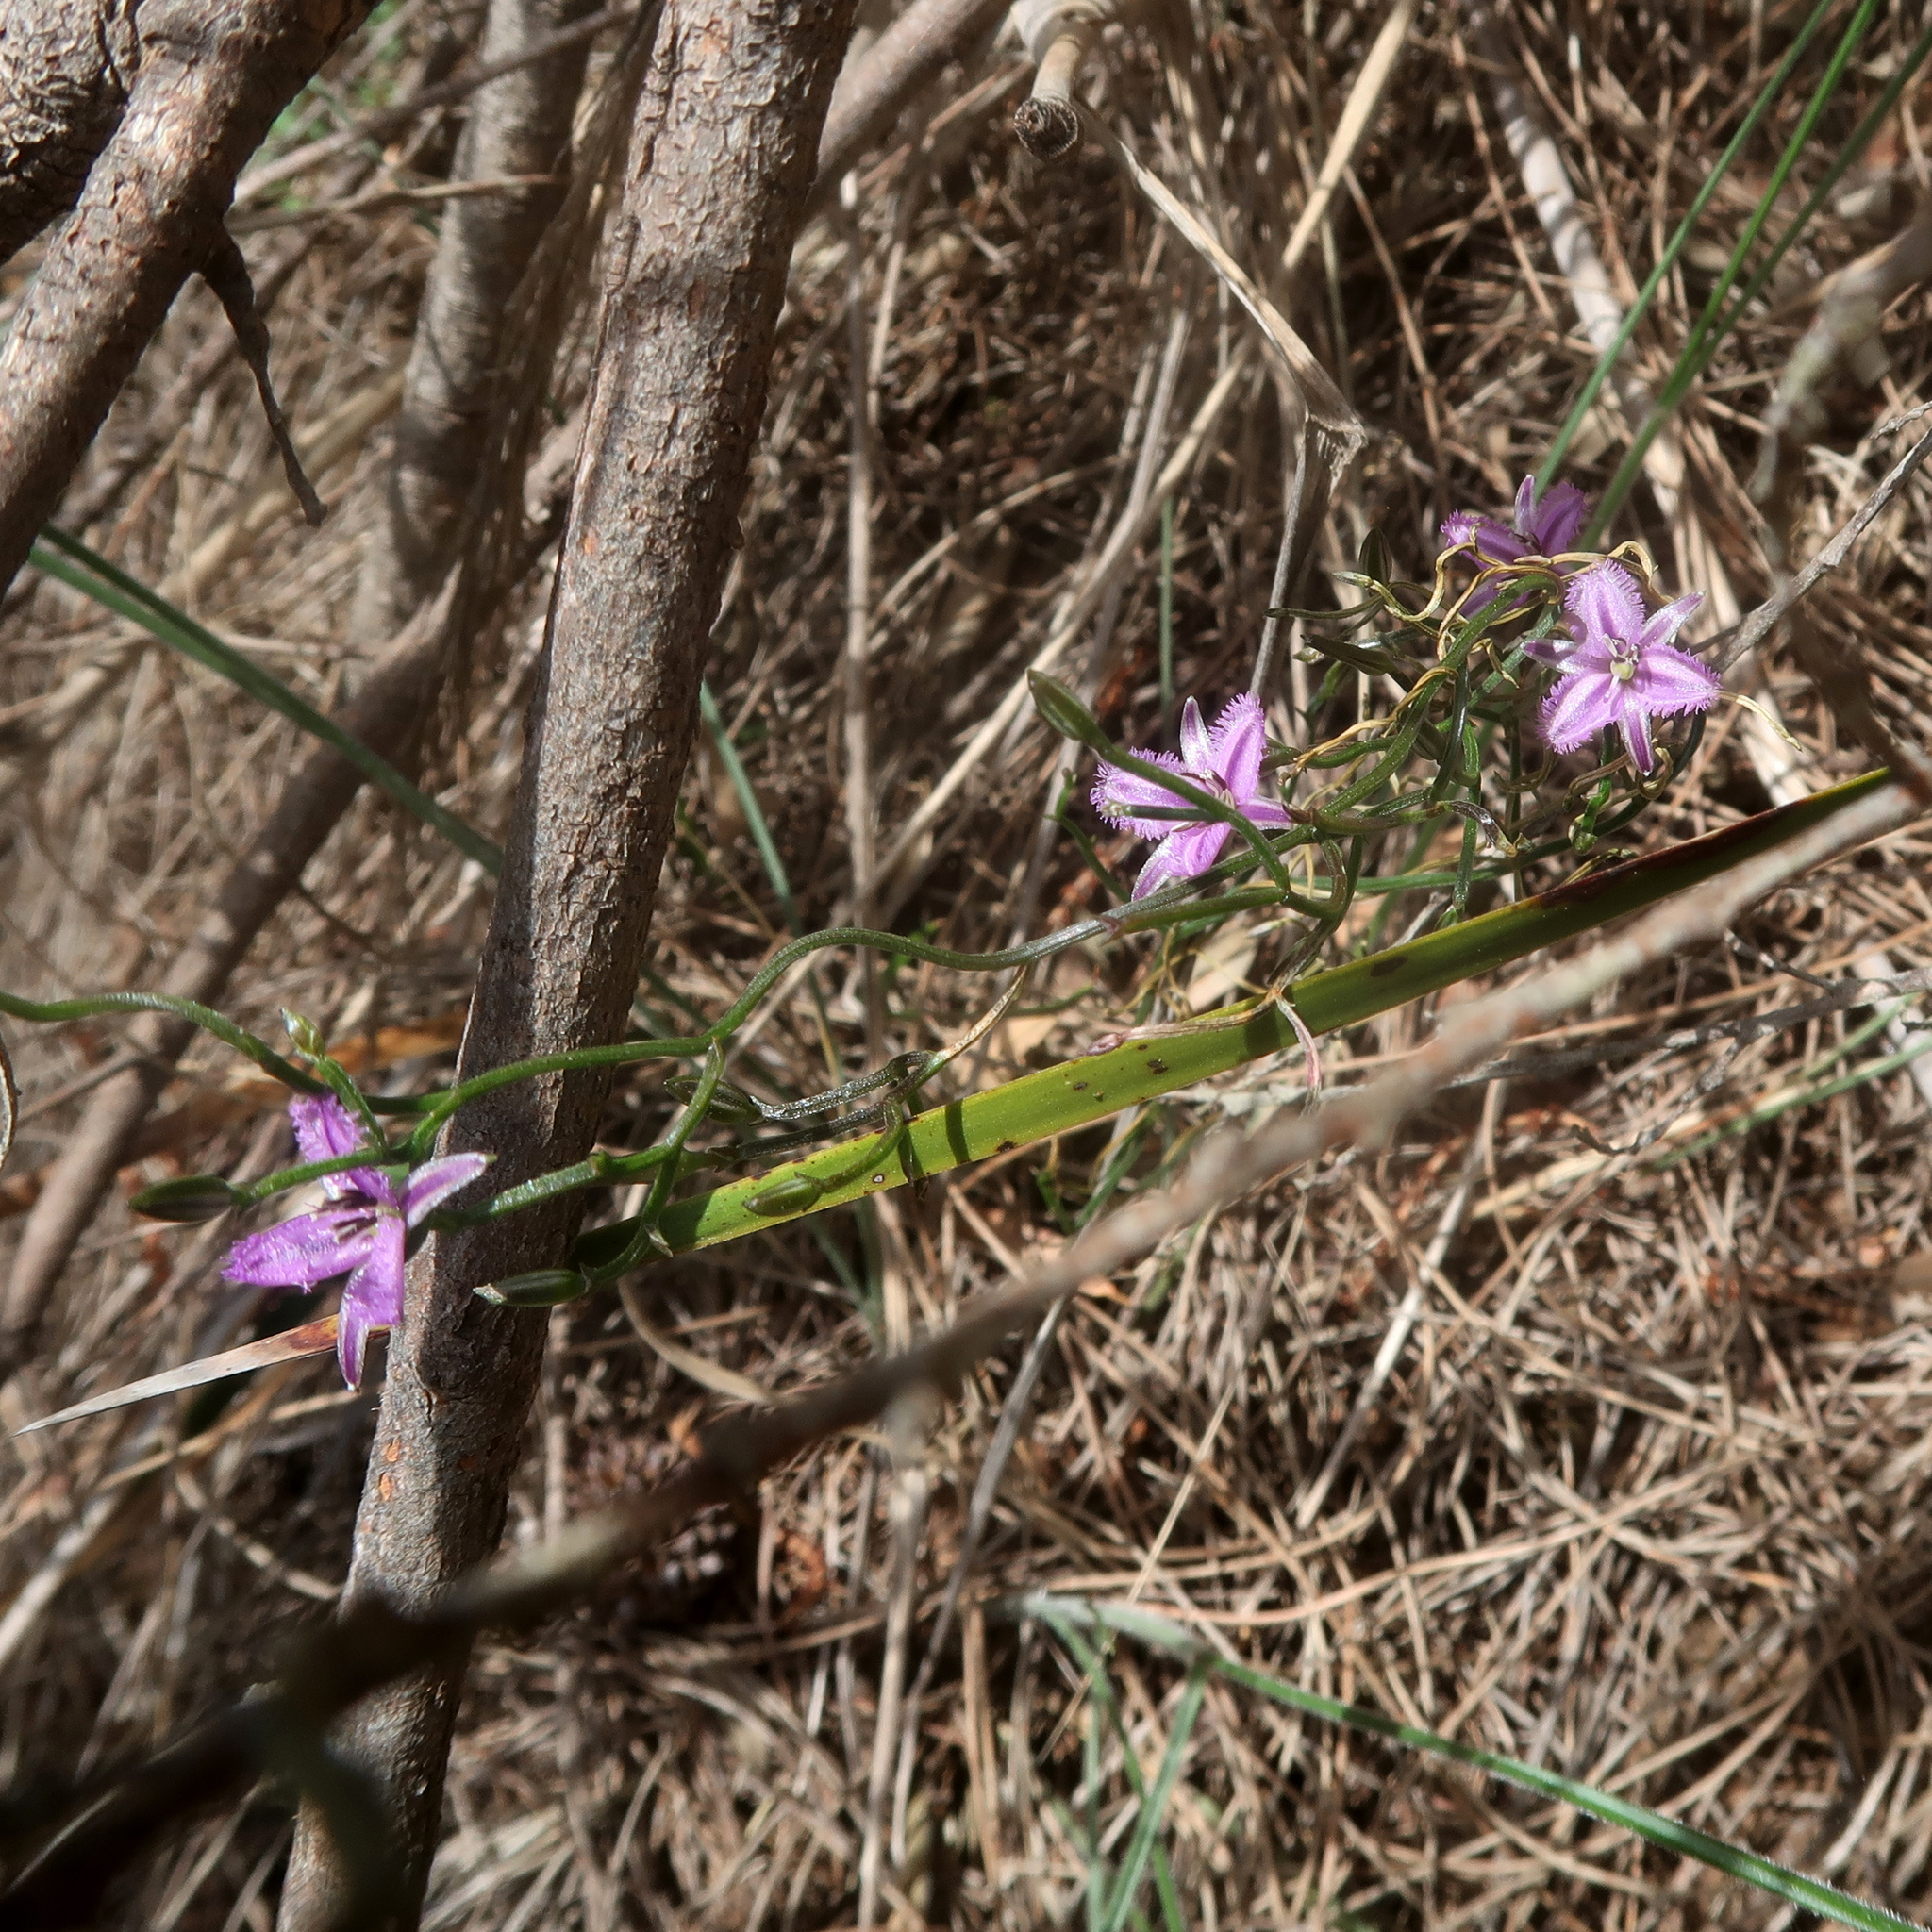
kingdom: Plantae
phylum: Tracheophyta
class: Liliopsida
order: Asparagales
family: Asparagaceae
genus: Thysanotus
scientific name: Thysanotus patersonii
